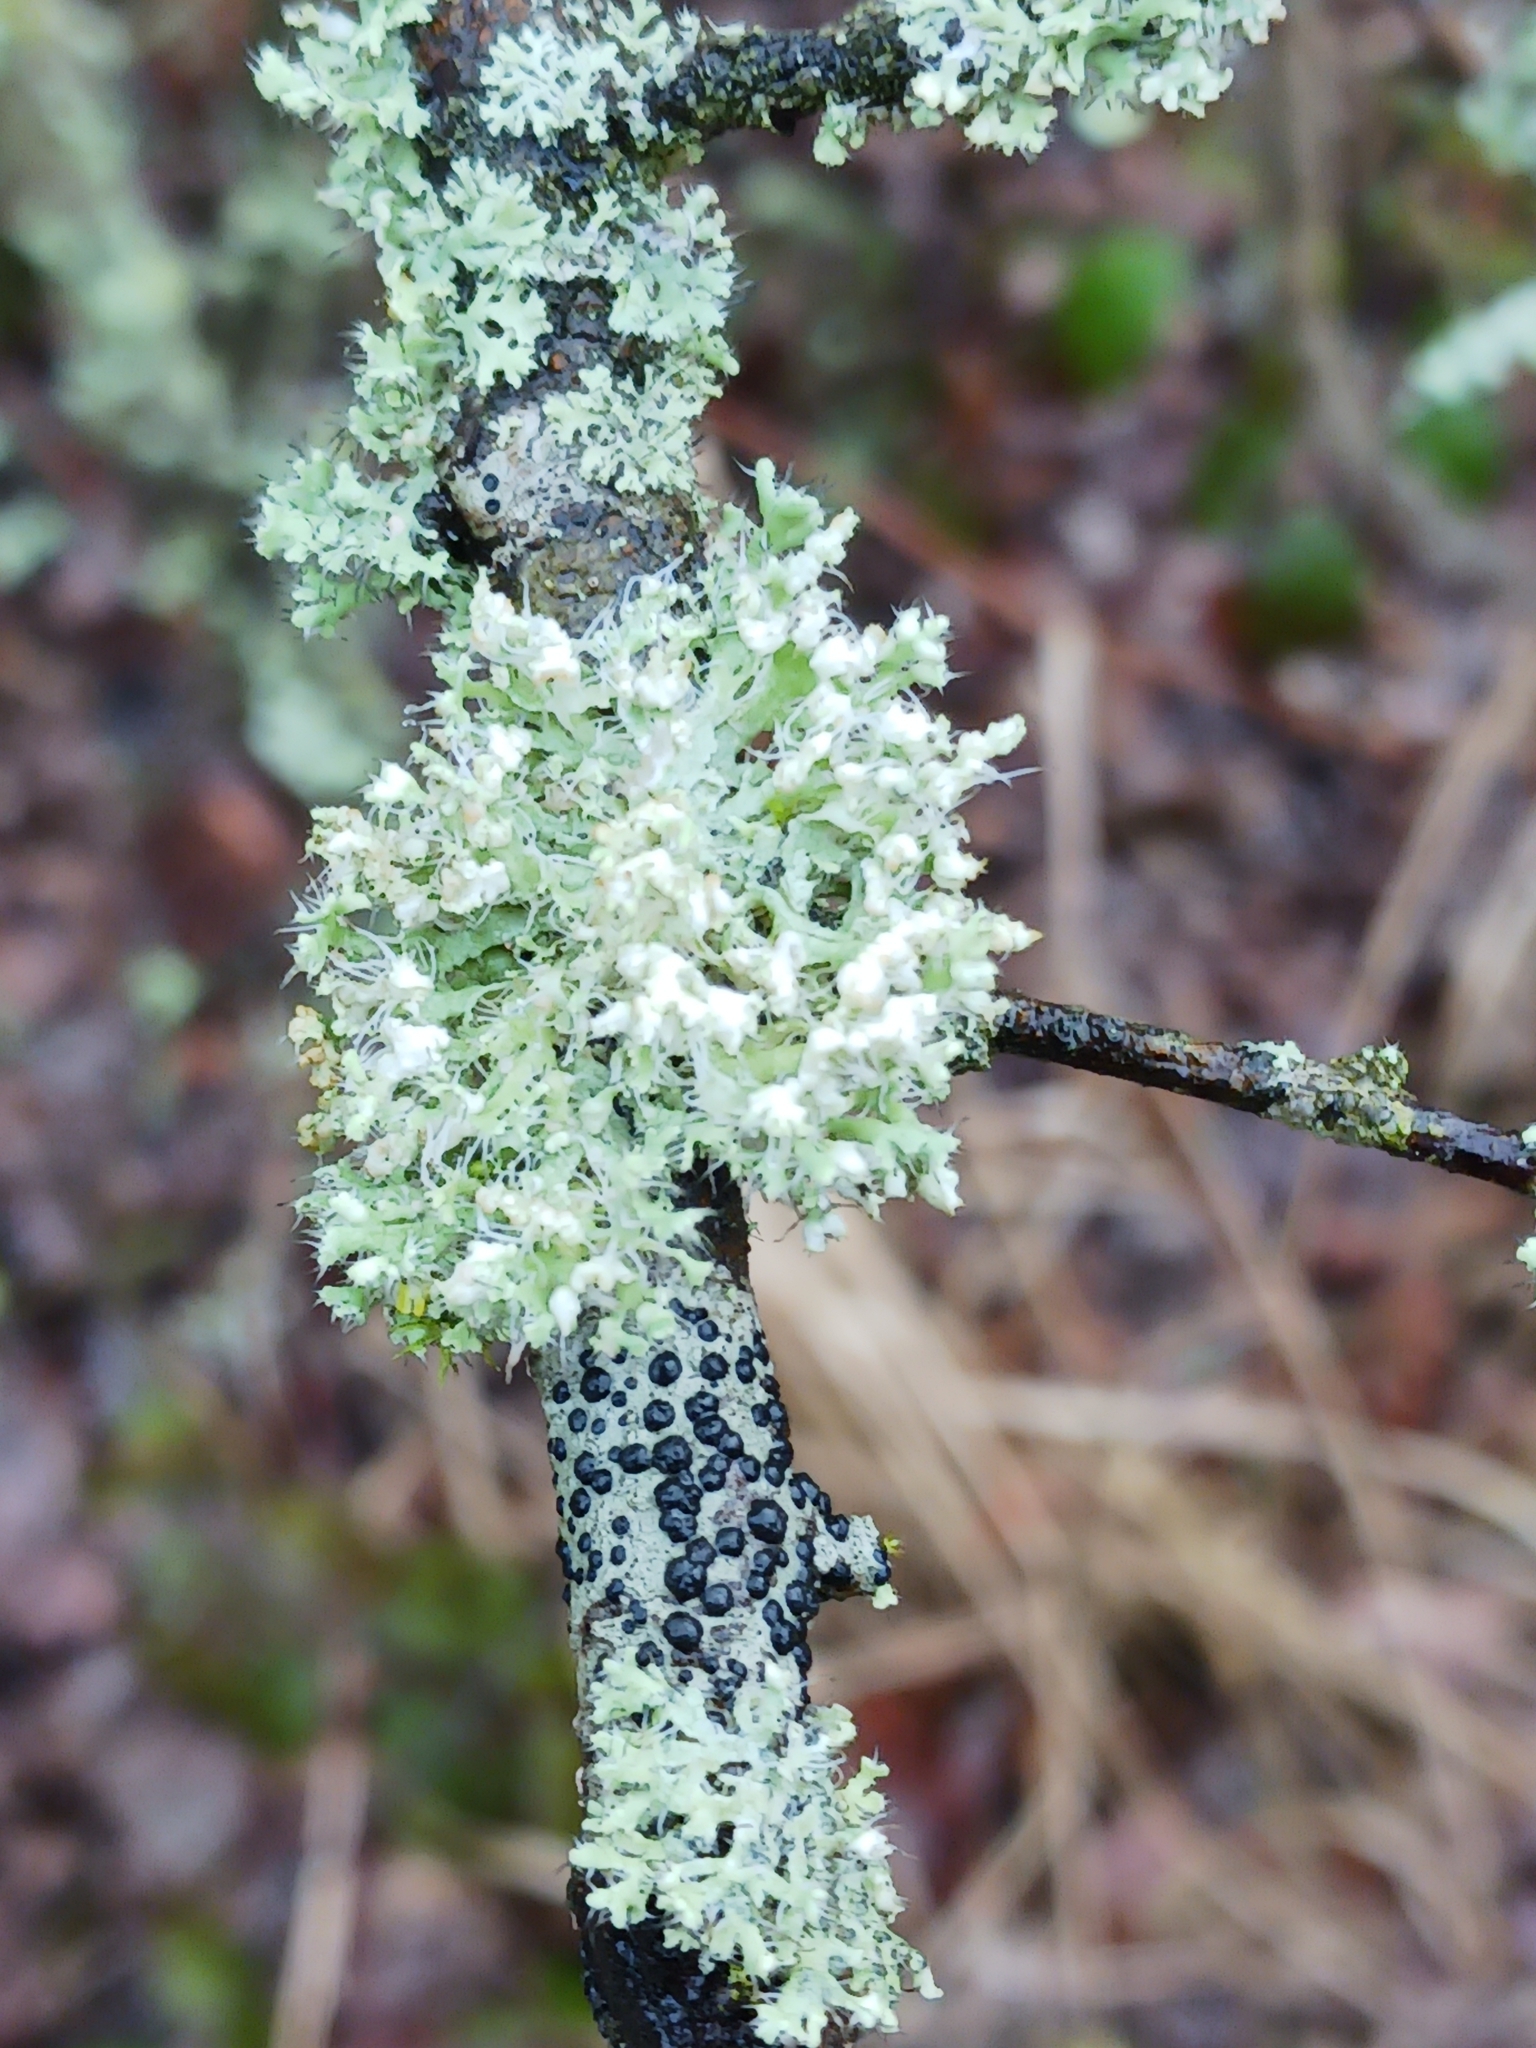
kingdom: Fungi
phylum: Ascomycota
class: Lecanoromycetes
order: Caliciales
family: Physciaceae
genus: Physcia
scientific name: Physcia adscendens
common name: Hooded rosette lichen
